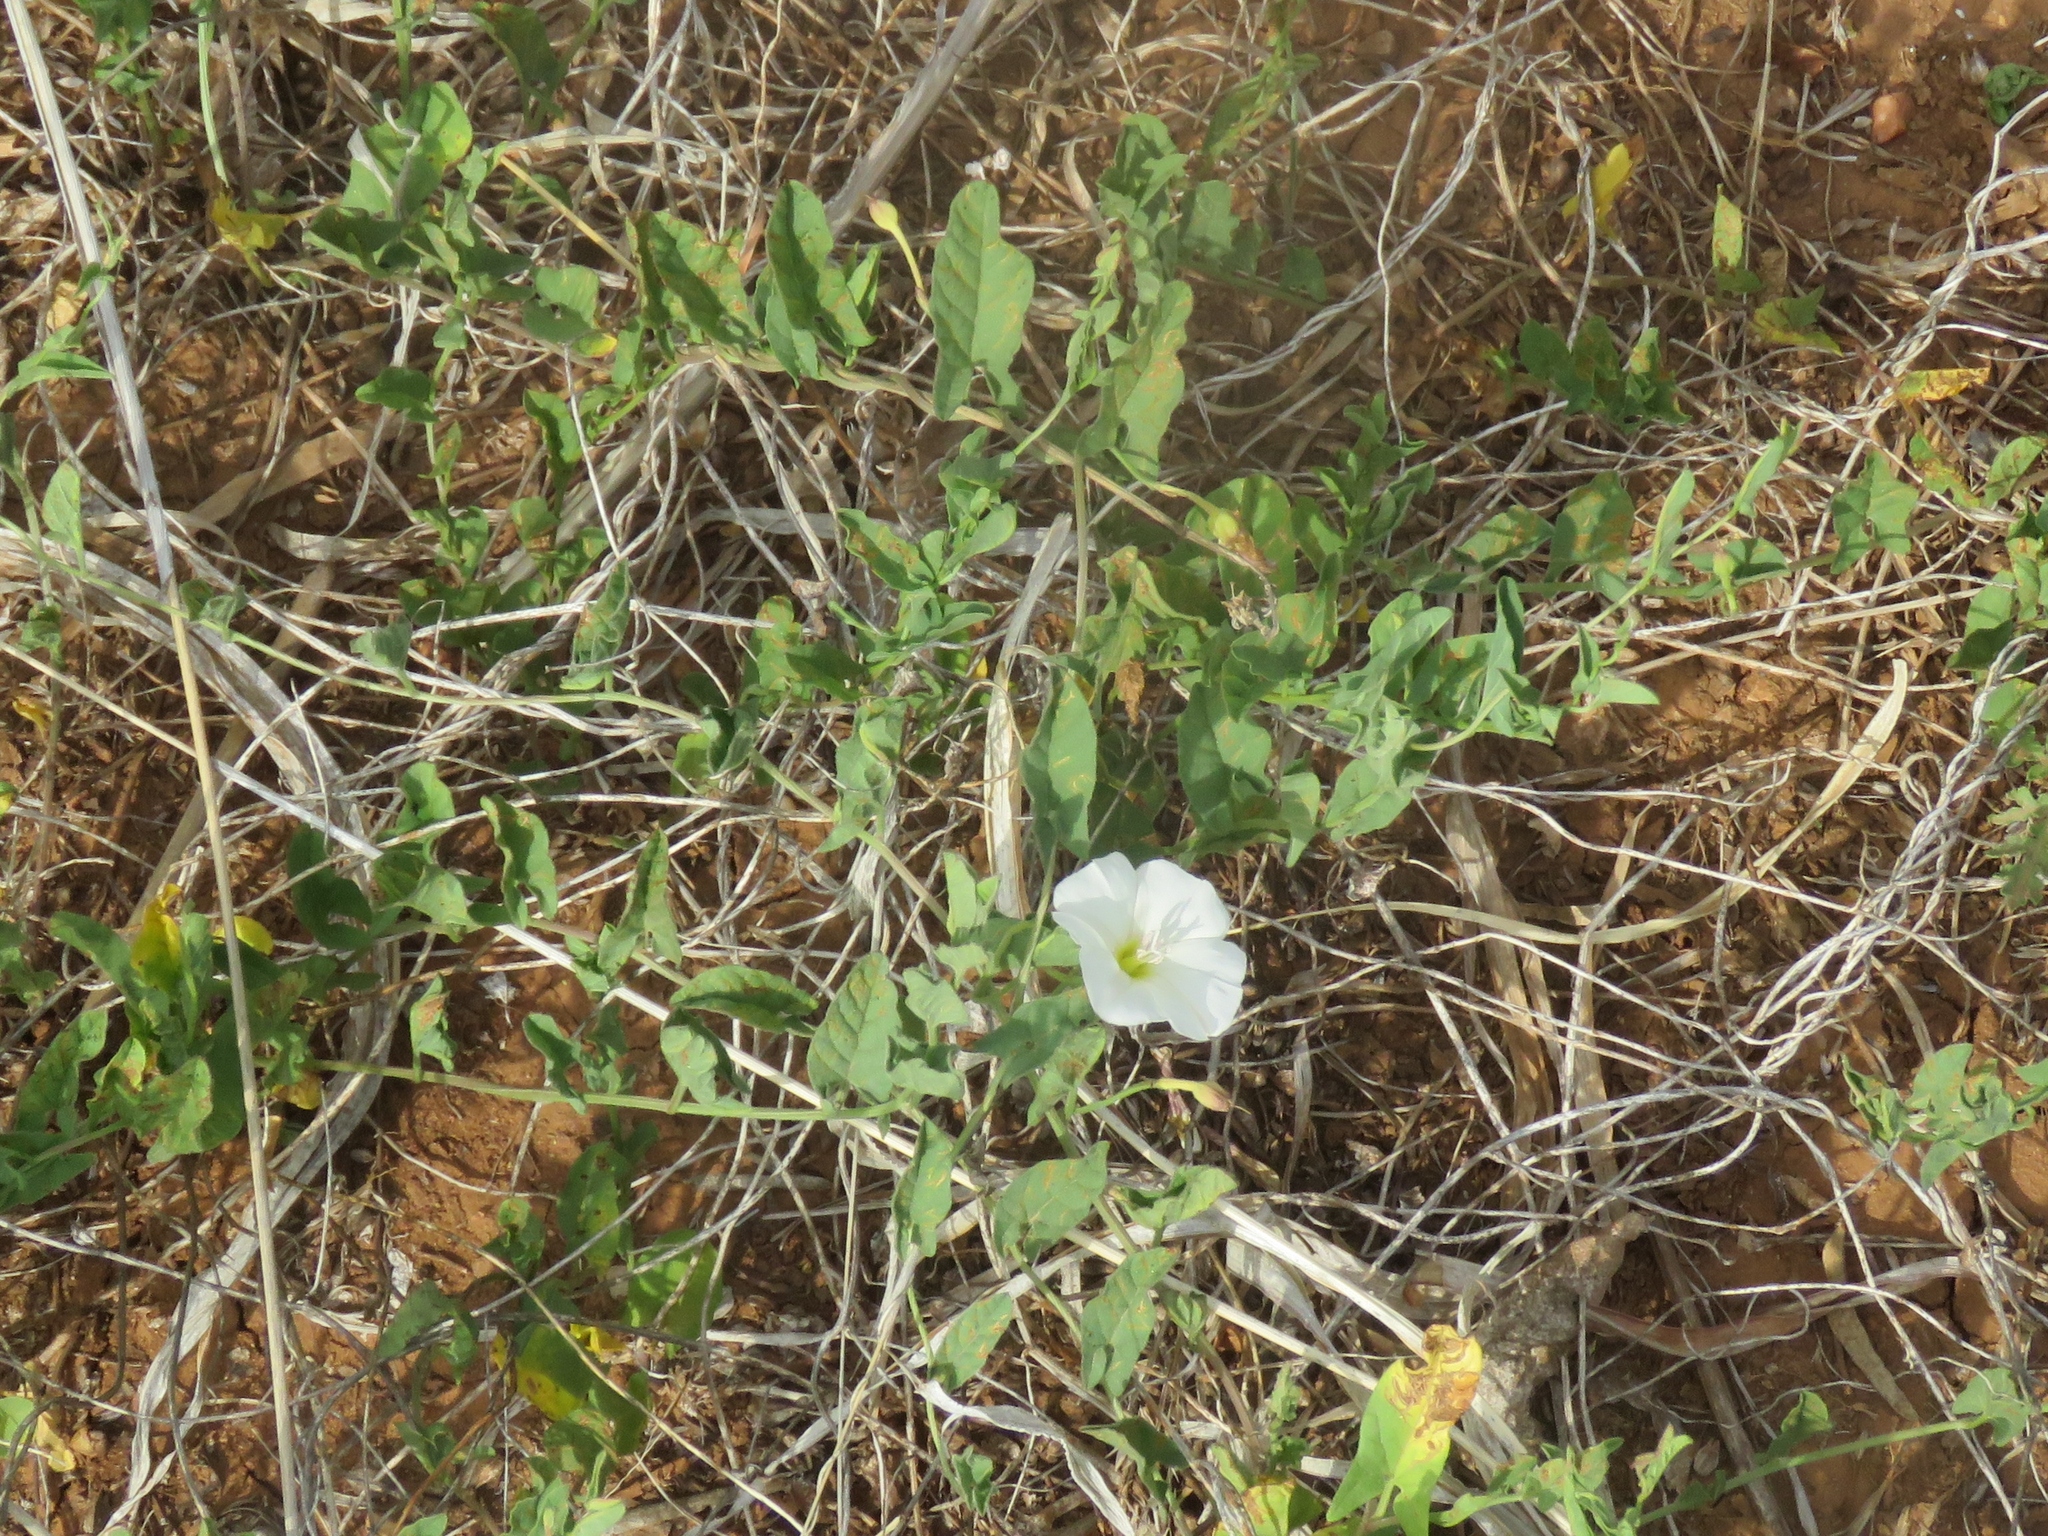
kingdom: Plantae
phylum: Tracheophyta
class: Magnoliopsida
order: Solanales
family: Convolvulaceae
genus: Convolvulus
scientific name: Convolvulus arvensis
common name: Field bindweed
